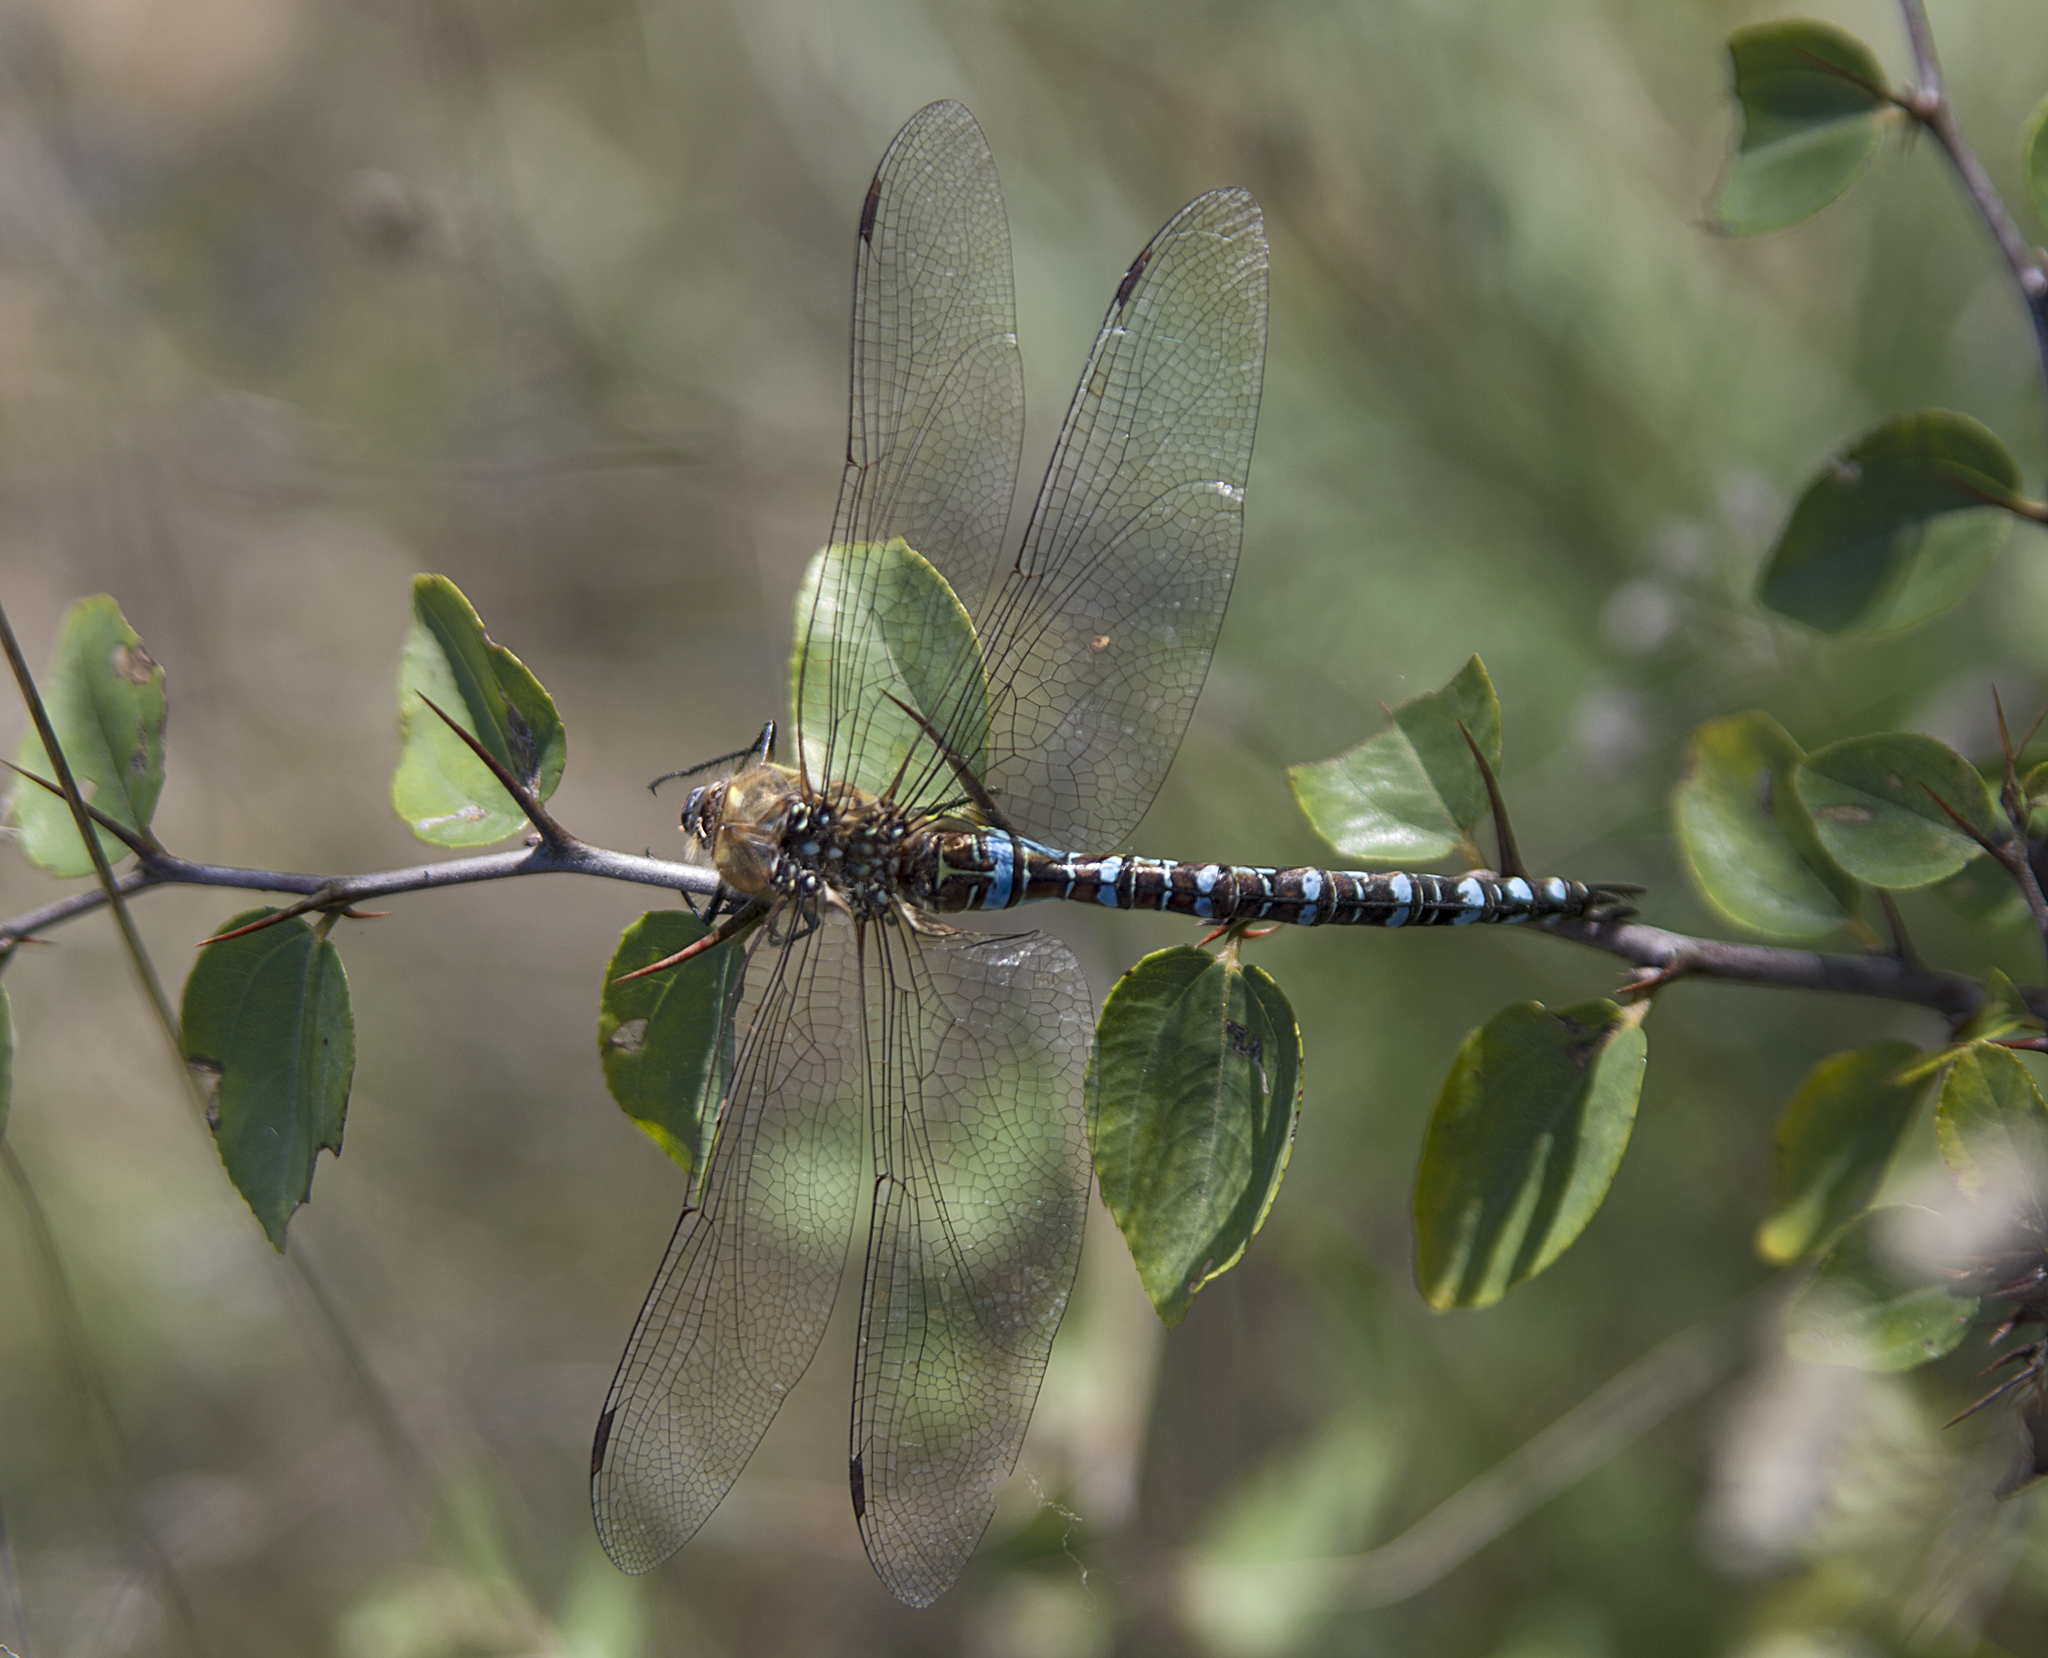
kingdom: Animalia
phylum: Arthropoda
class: Insecta
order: Odonata
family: Aeshnidae
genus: Aeshna
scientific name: Aeshna mixta
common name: Migrant hawker
